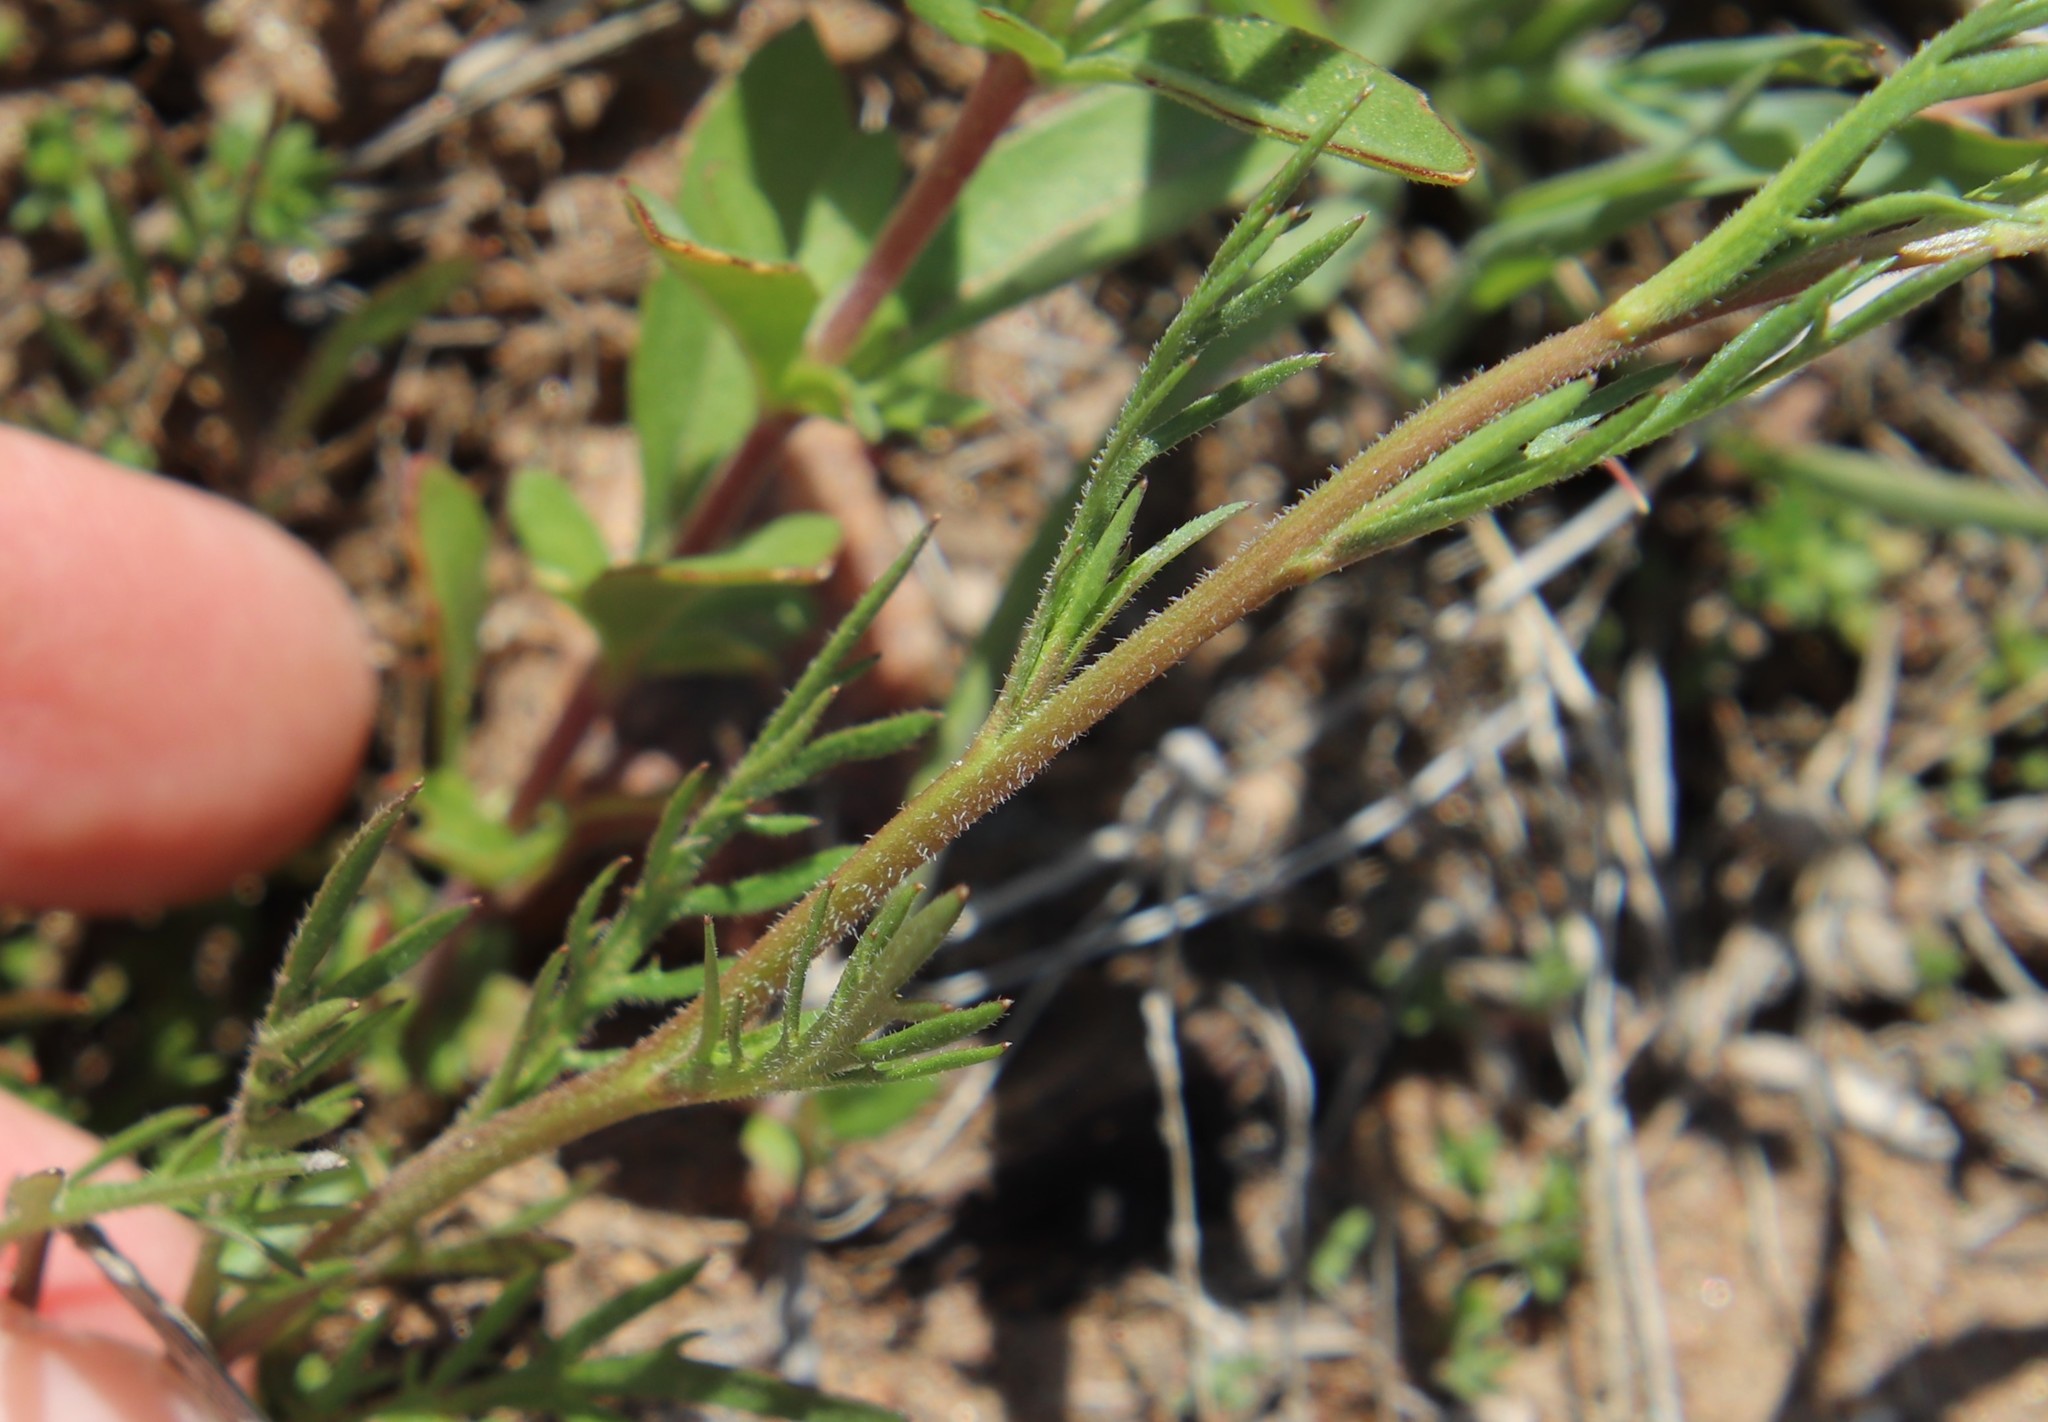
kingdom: Plantae
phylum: Tracheophyta
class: Magnoliopsida
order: Brassicales
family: Brassicaceae
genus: Lepidium
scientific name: Lepidium nitidum
